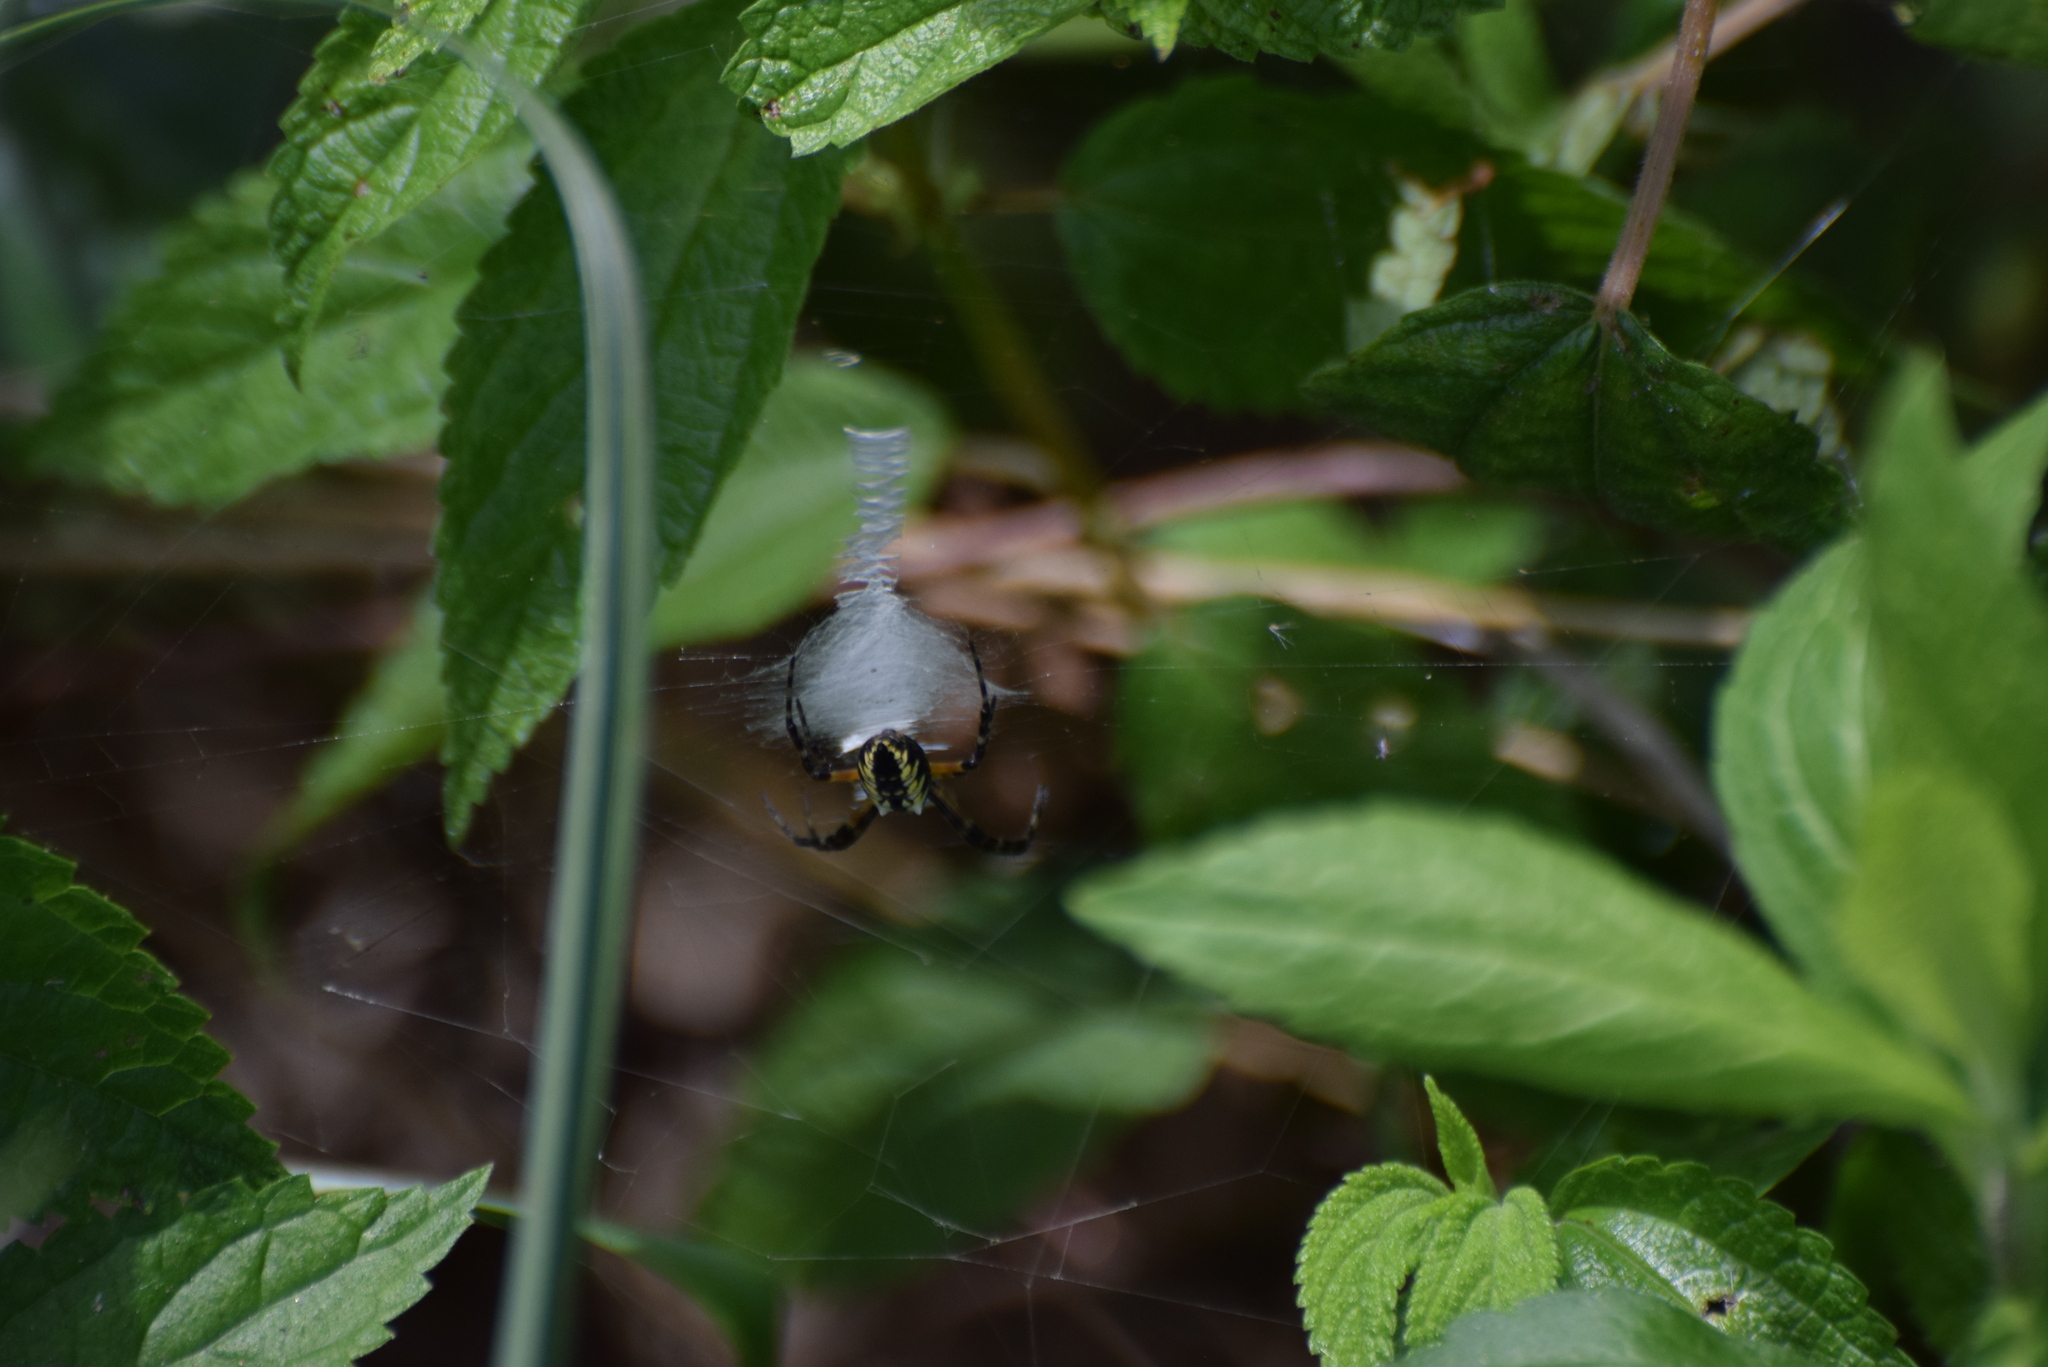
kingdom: Animalia
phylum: Arthropoda
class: Arachnida
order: Araneae
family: Araneidae
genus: Argiope
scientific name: Argiope aurantia
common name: Orb weavers
